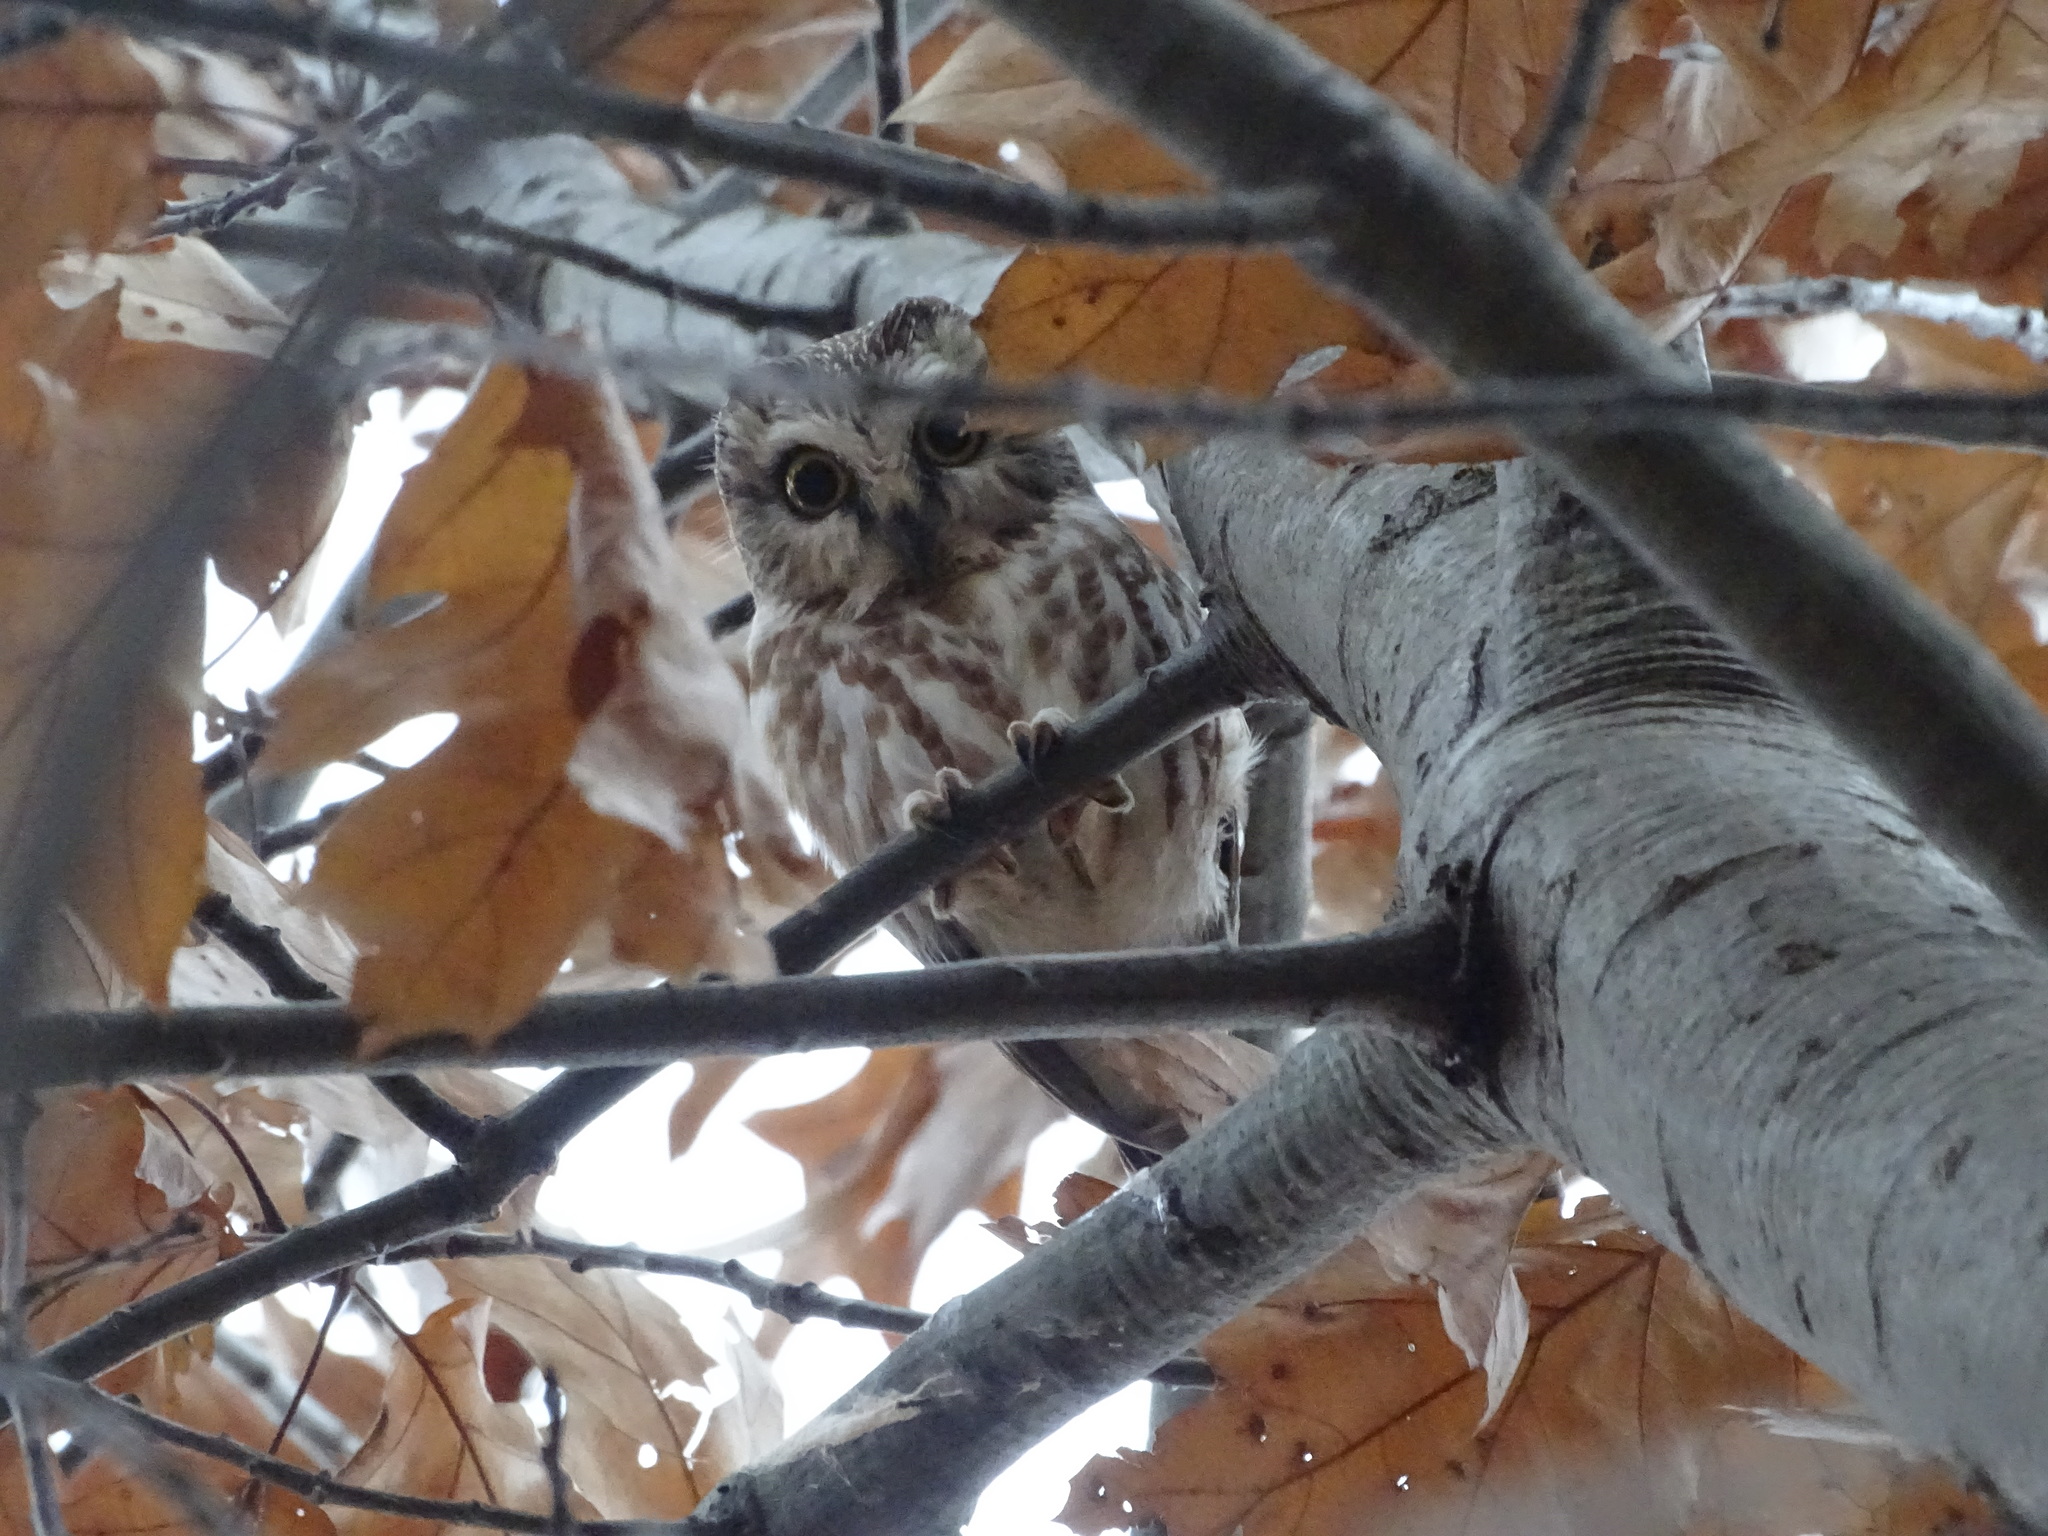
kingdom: Animalia
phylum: Chordata
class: Aves
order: Strigiformes
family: Strigidae
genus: Aegolius
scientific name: Aegolius acadicus
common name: Northern saw-whet owl
